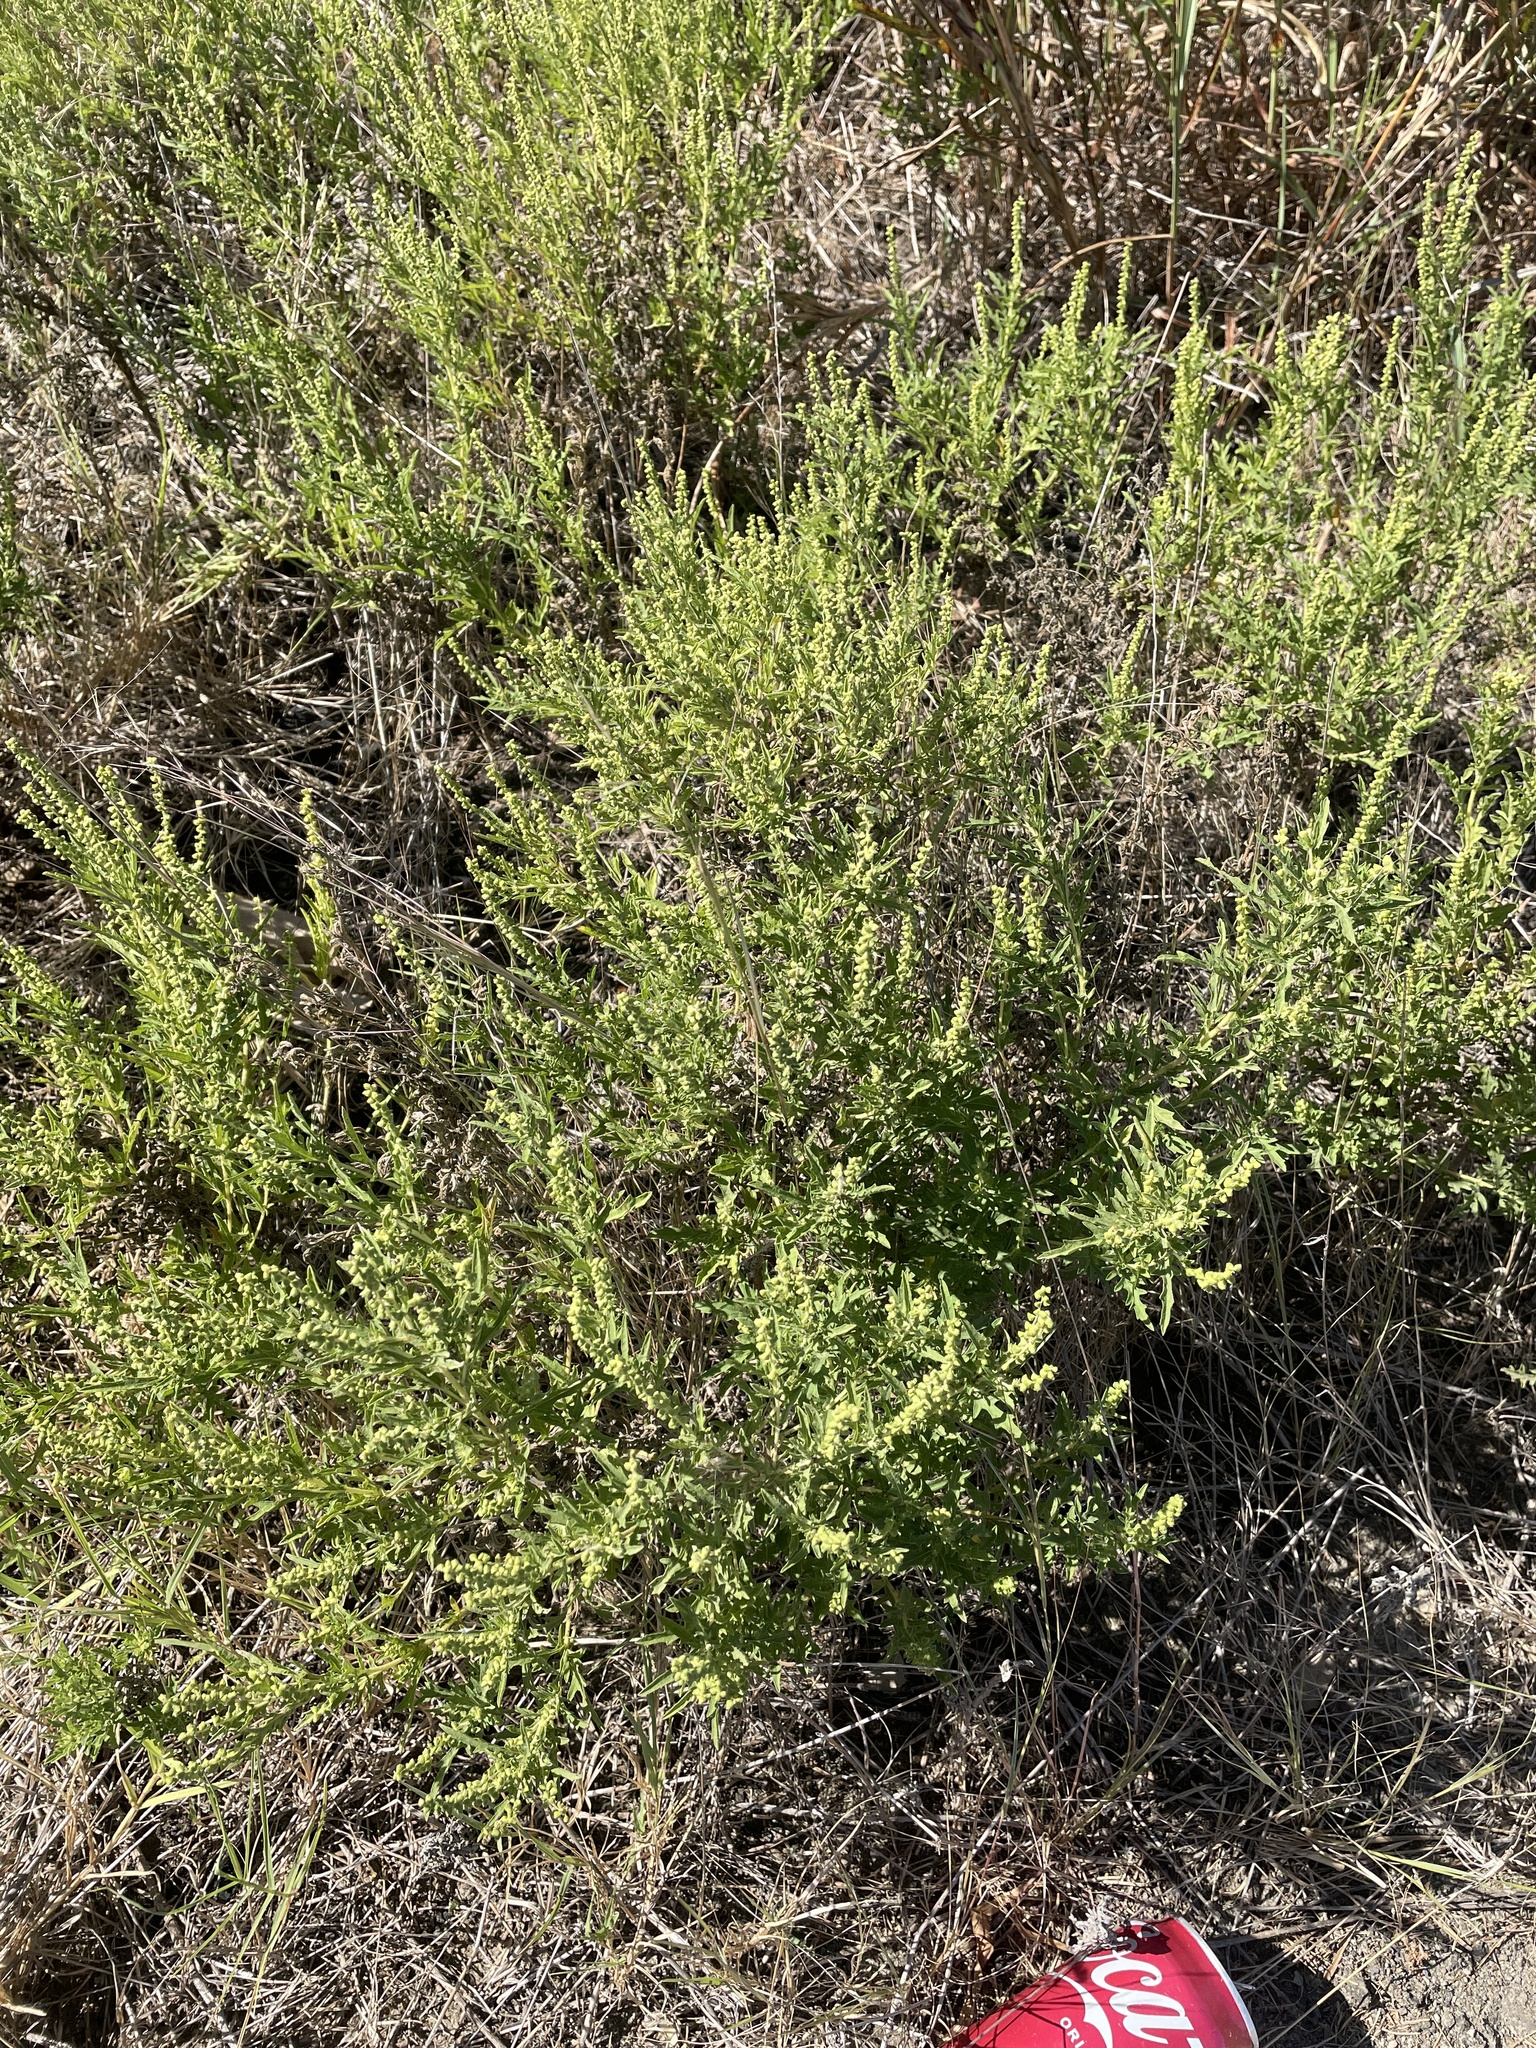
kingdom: Plantae
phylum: Tracheophyta
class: Magnoliopsida
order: Asterales
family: Asteraceae
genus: Ambrosia
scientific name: Ambrosia psilostachya
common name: Perennial ragweed
